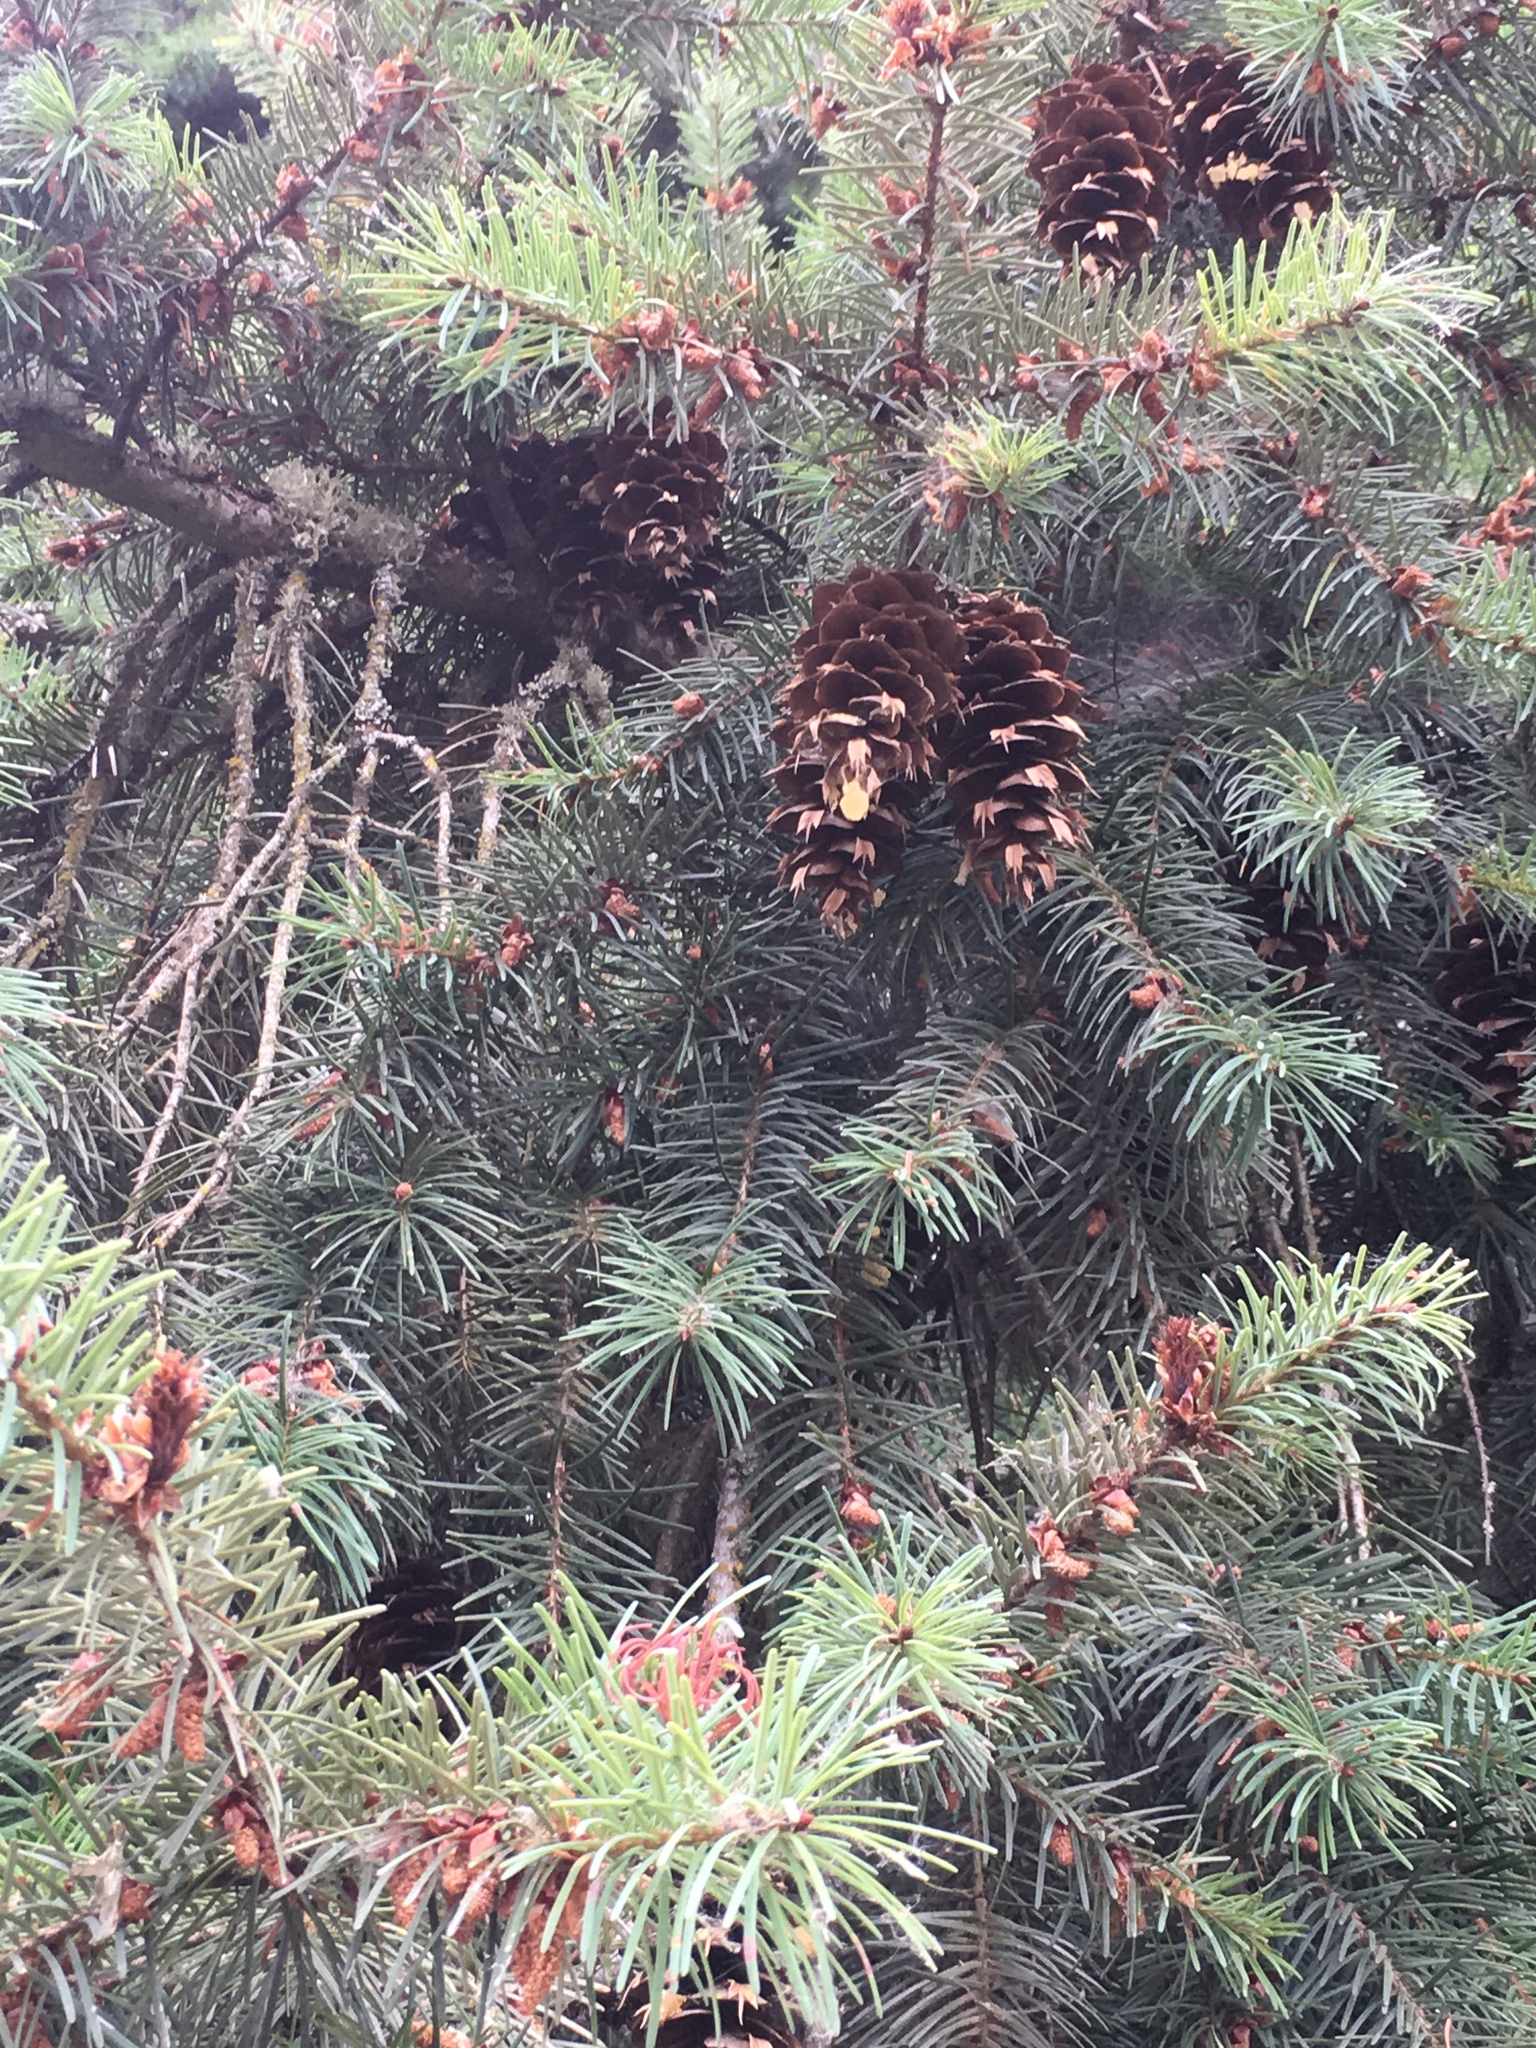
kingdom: Plantae
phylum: Tracheophyta
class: Pinopsida
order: Pinales
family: Pinaceae
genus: Pseudotsuga
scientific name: Pseudotsuga menziesii
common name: Douglas fir
